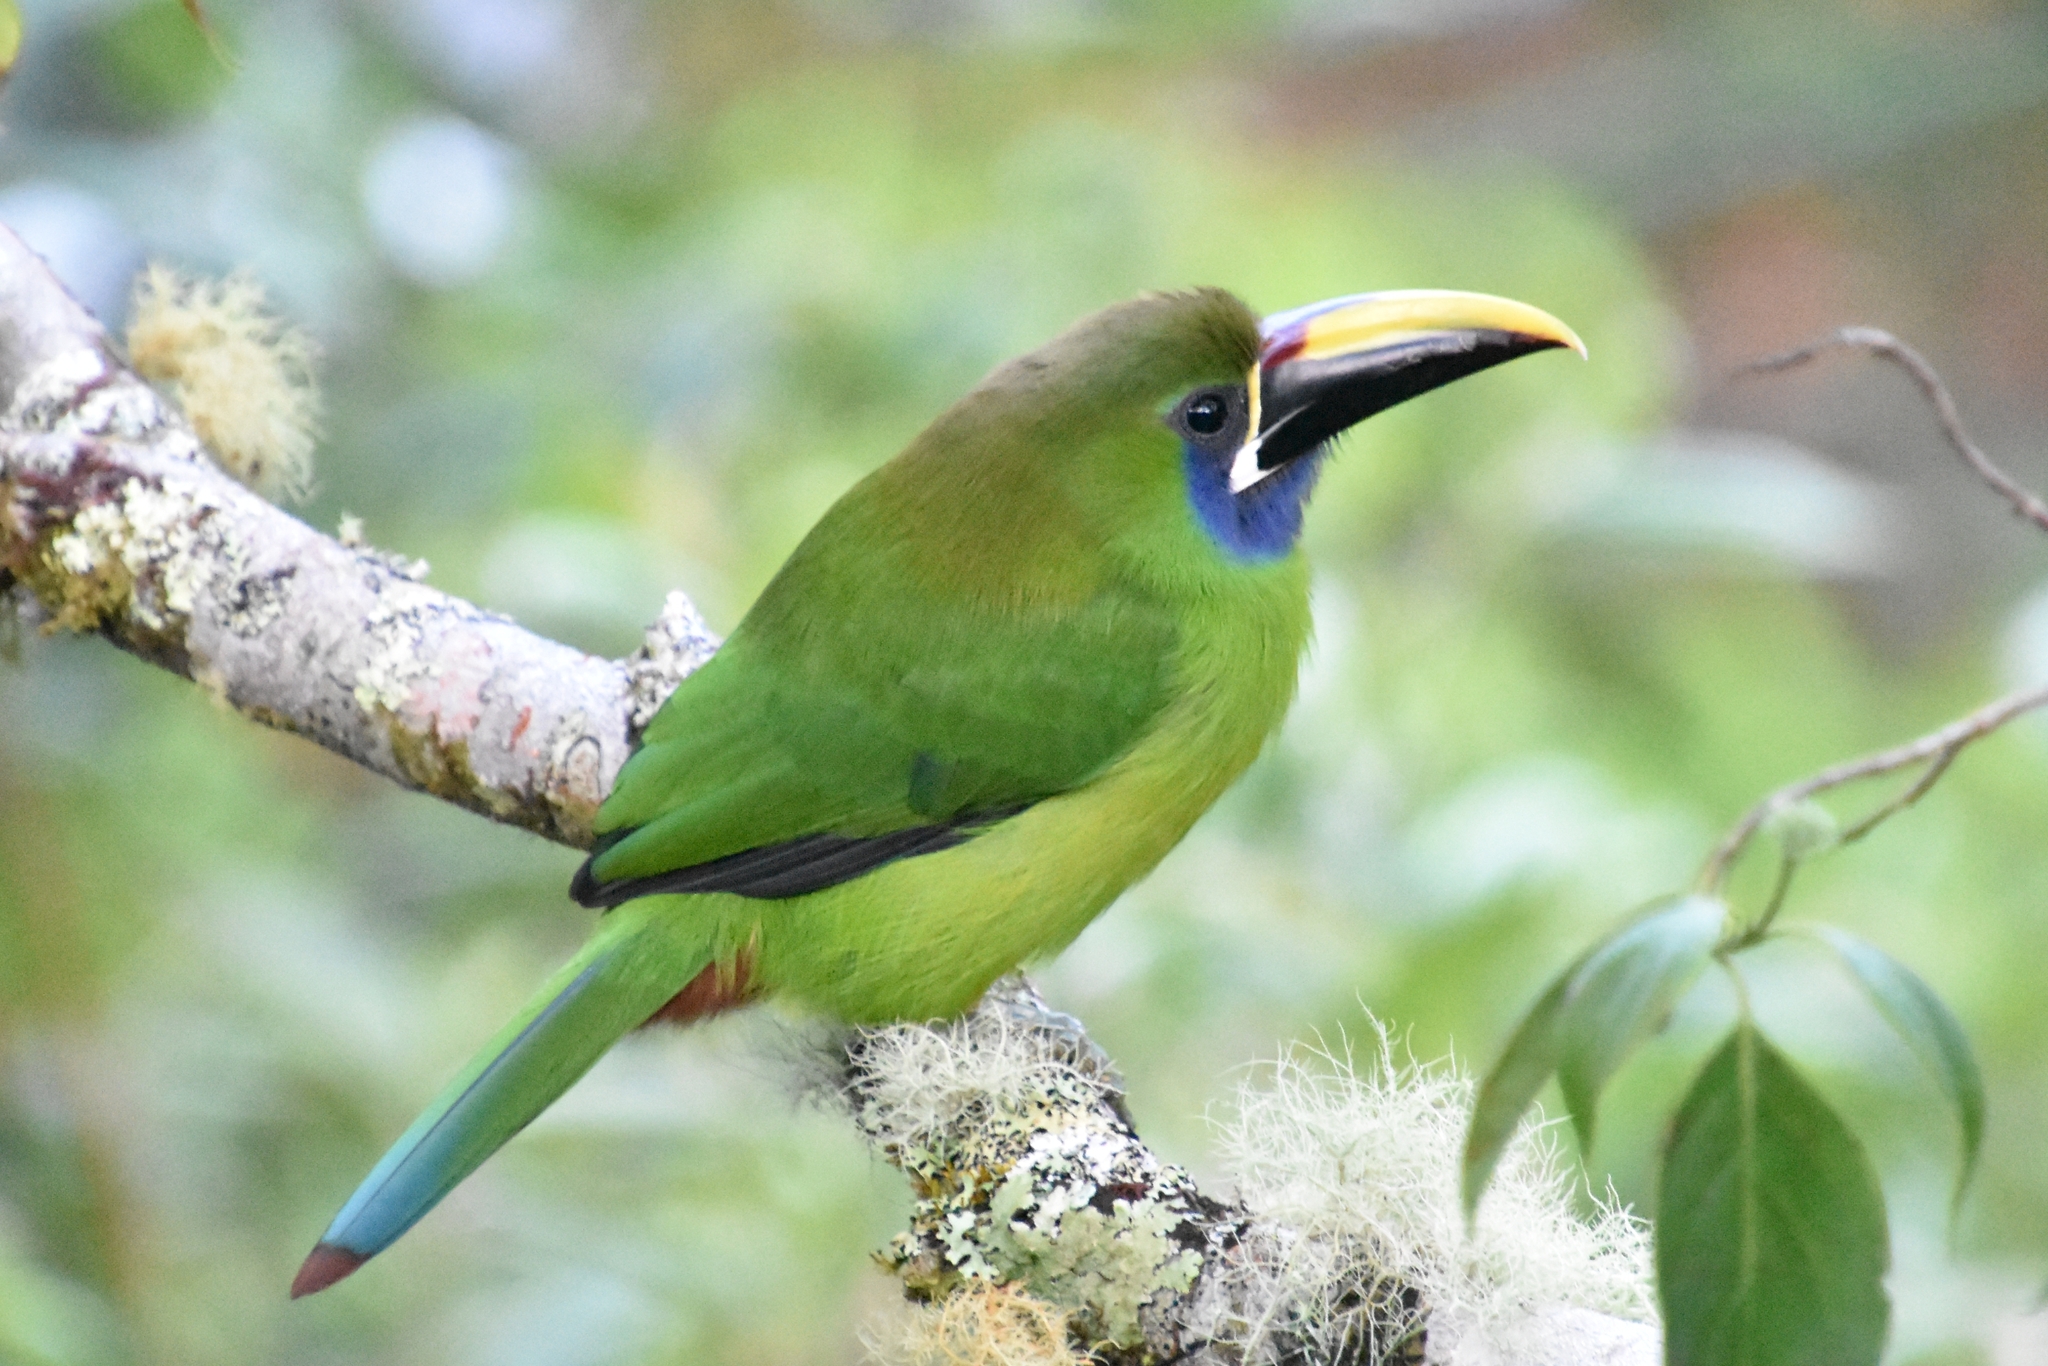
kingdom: Animalia
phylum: Chordata
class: Aves
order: Piciformes
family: Ramphastidae
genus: Aulacorhynchus
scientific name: Aulacorhynchus prasinus
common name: Emerald toucanet
